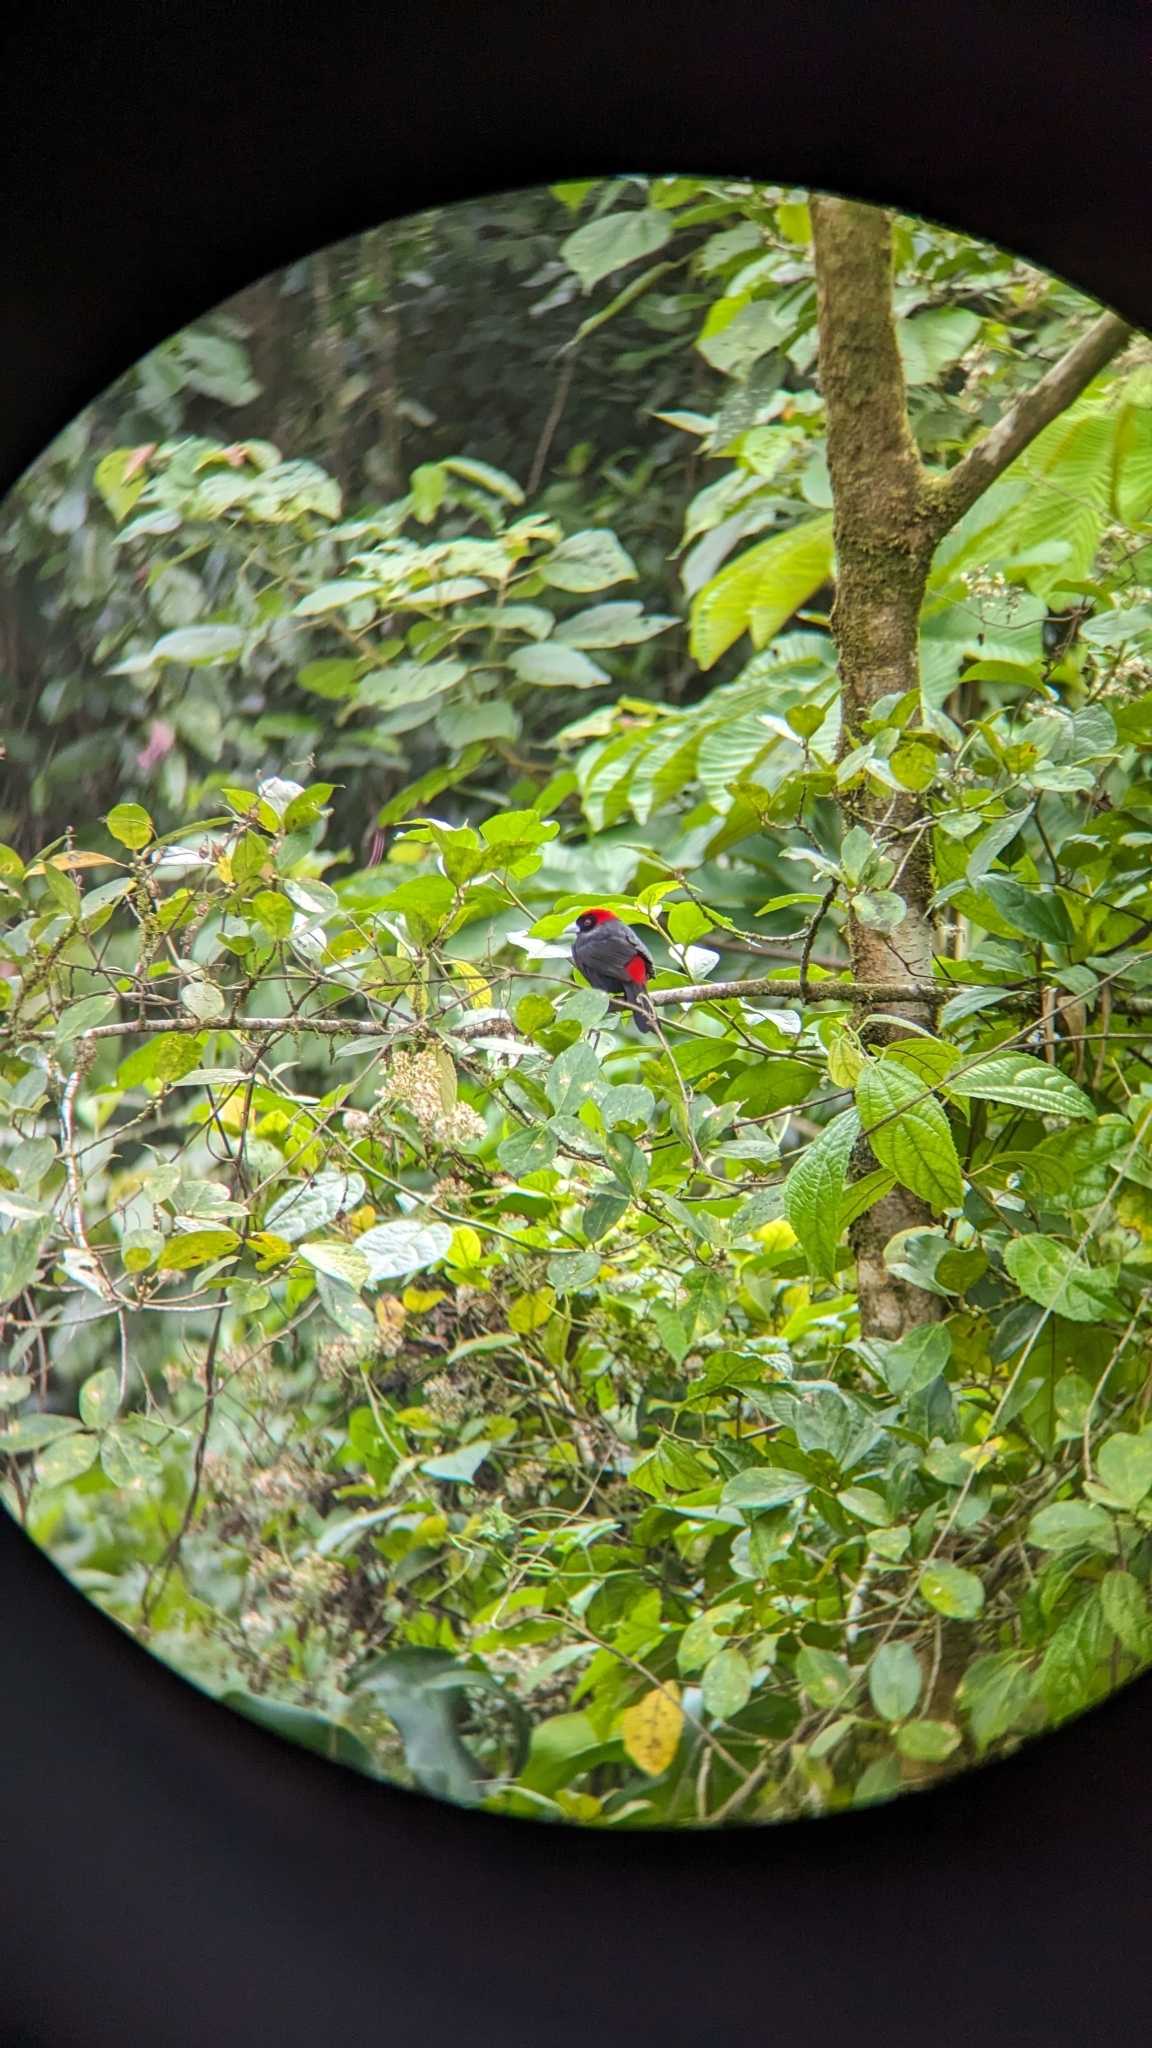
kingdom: Animalia
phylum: Chordata
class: Aves
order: Passeriformes
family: Thraupidae
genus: Ramphocelus
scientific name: Ramphocelus sanguinolentus
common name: Crimson-collared tanager
